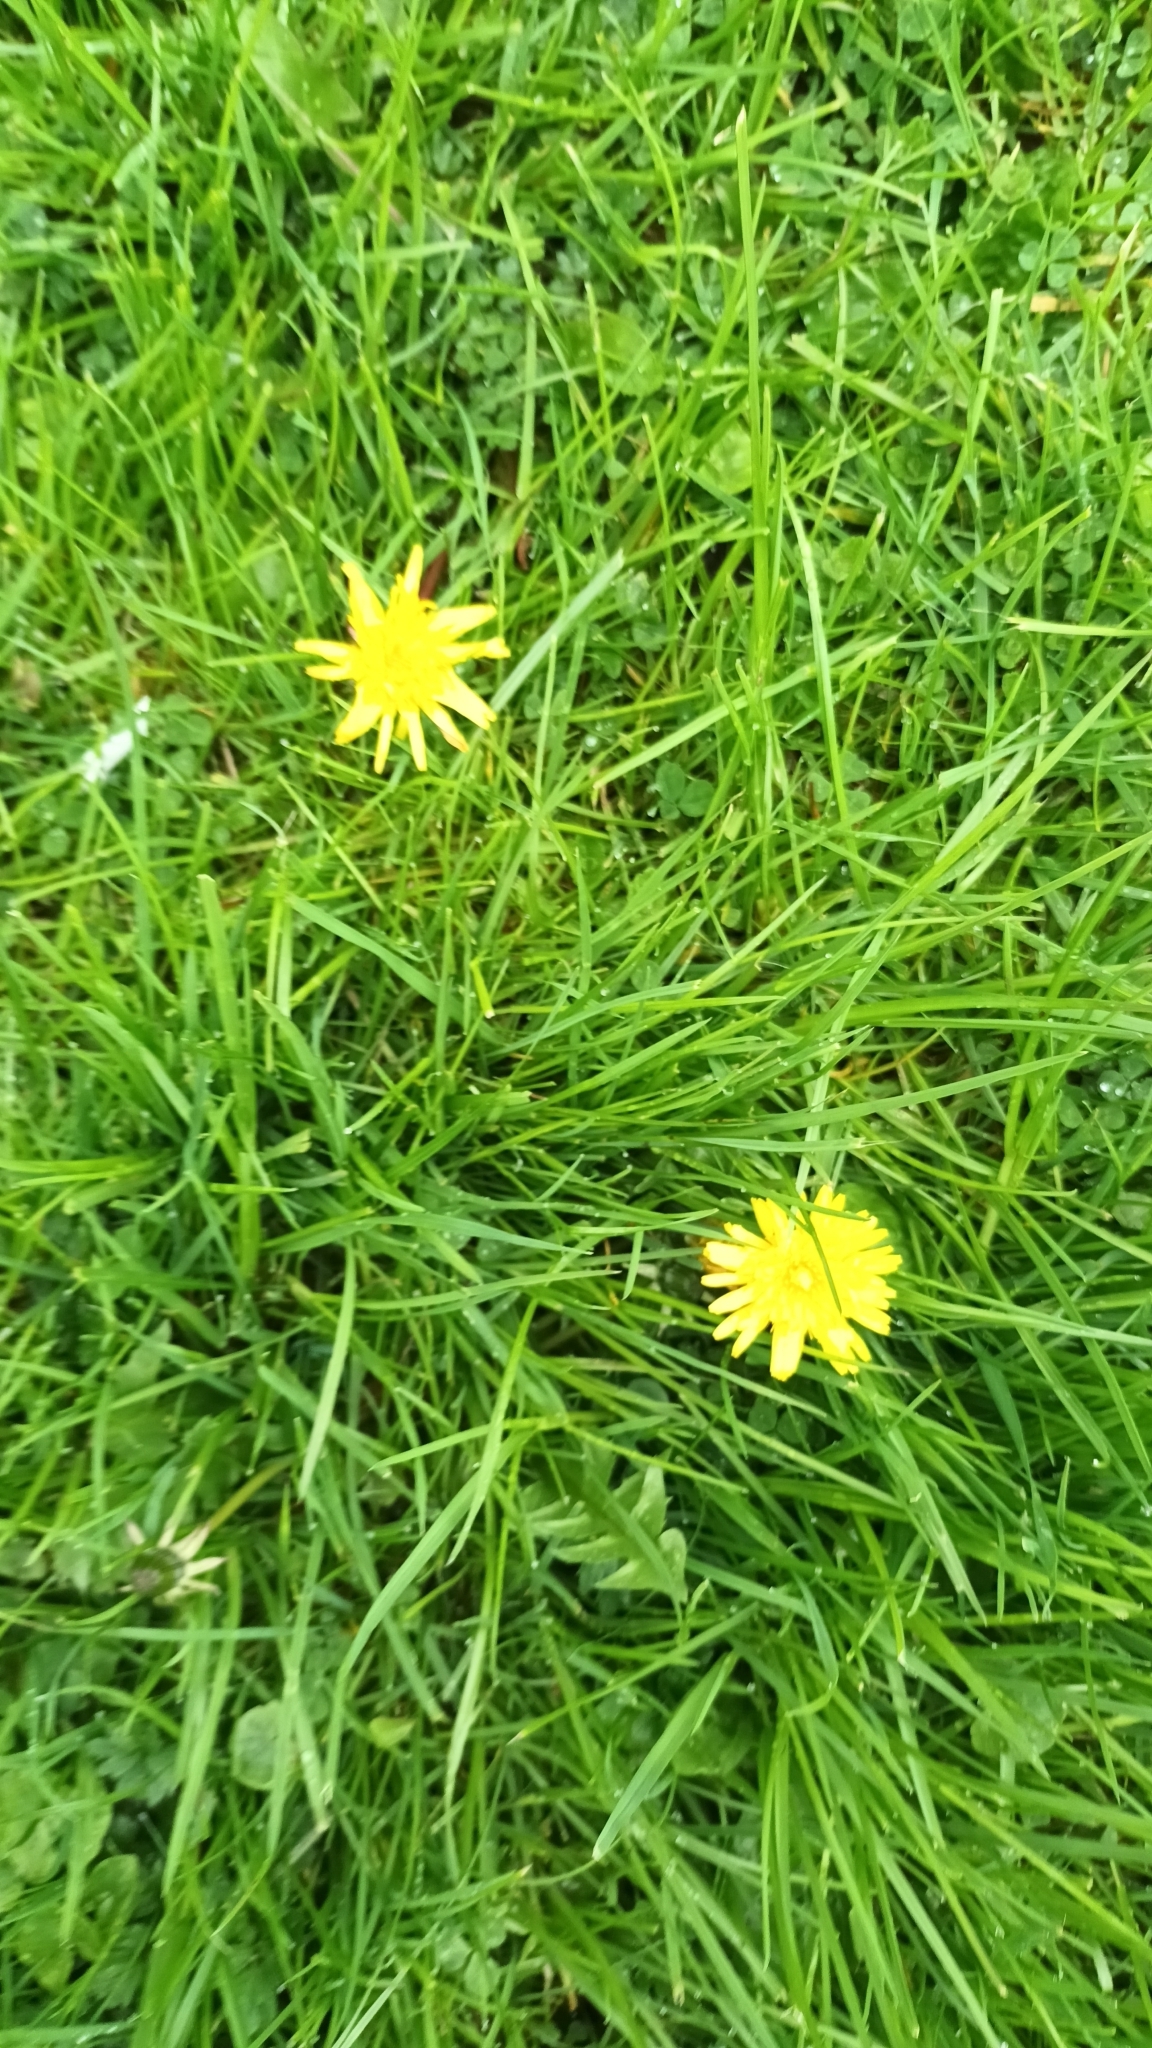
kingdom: Plantae
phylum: Tracheophyta
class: Magnoliopsida
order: Asterales
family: Asteraceae
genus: Taraxacum
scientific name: Taraxacum officinale
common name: Common dandelion
